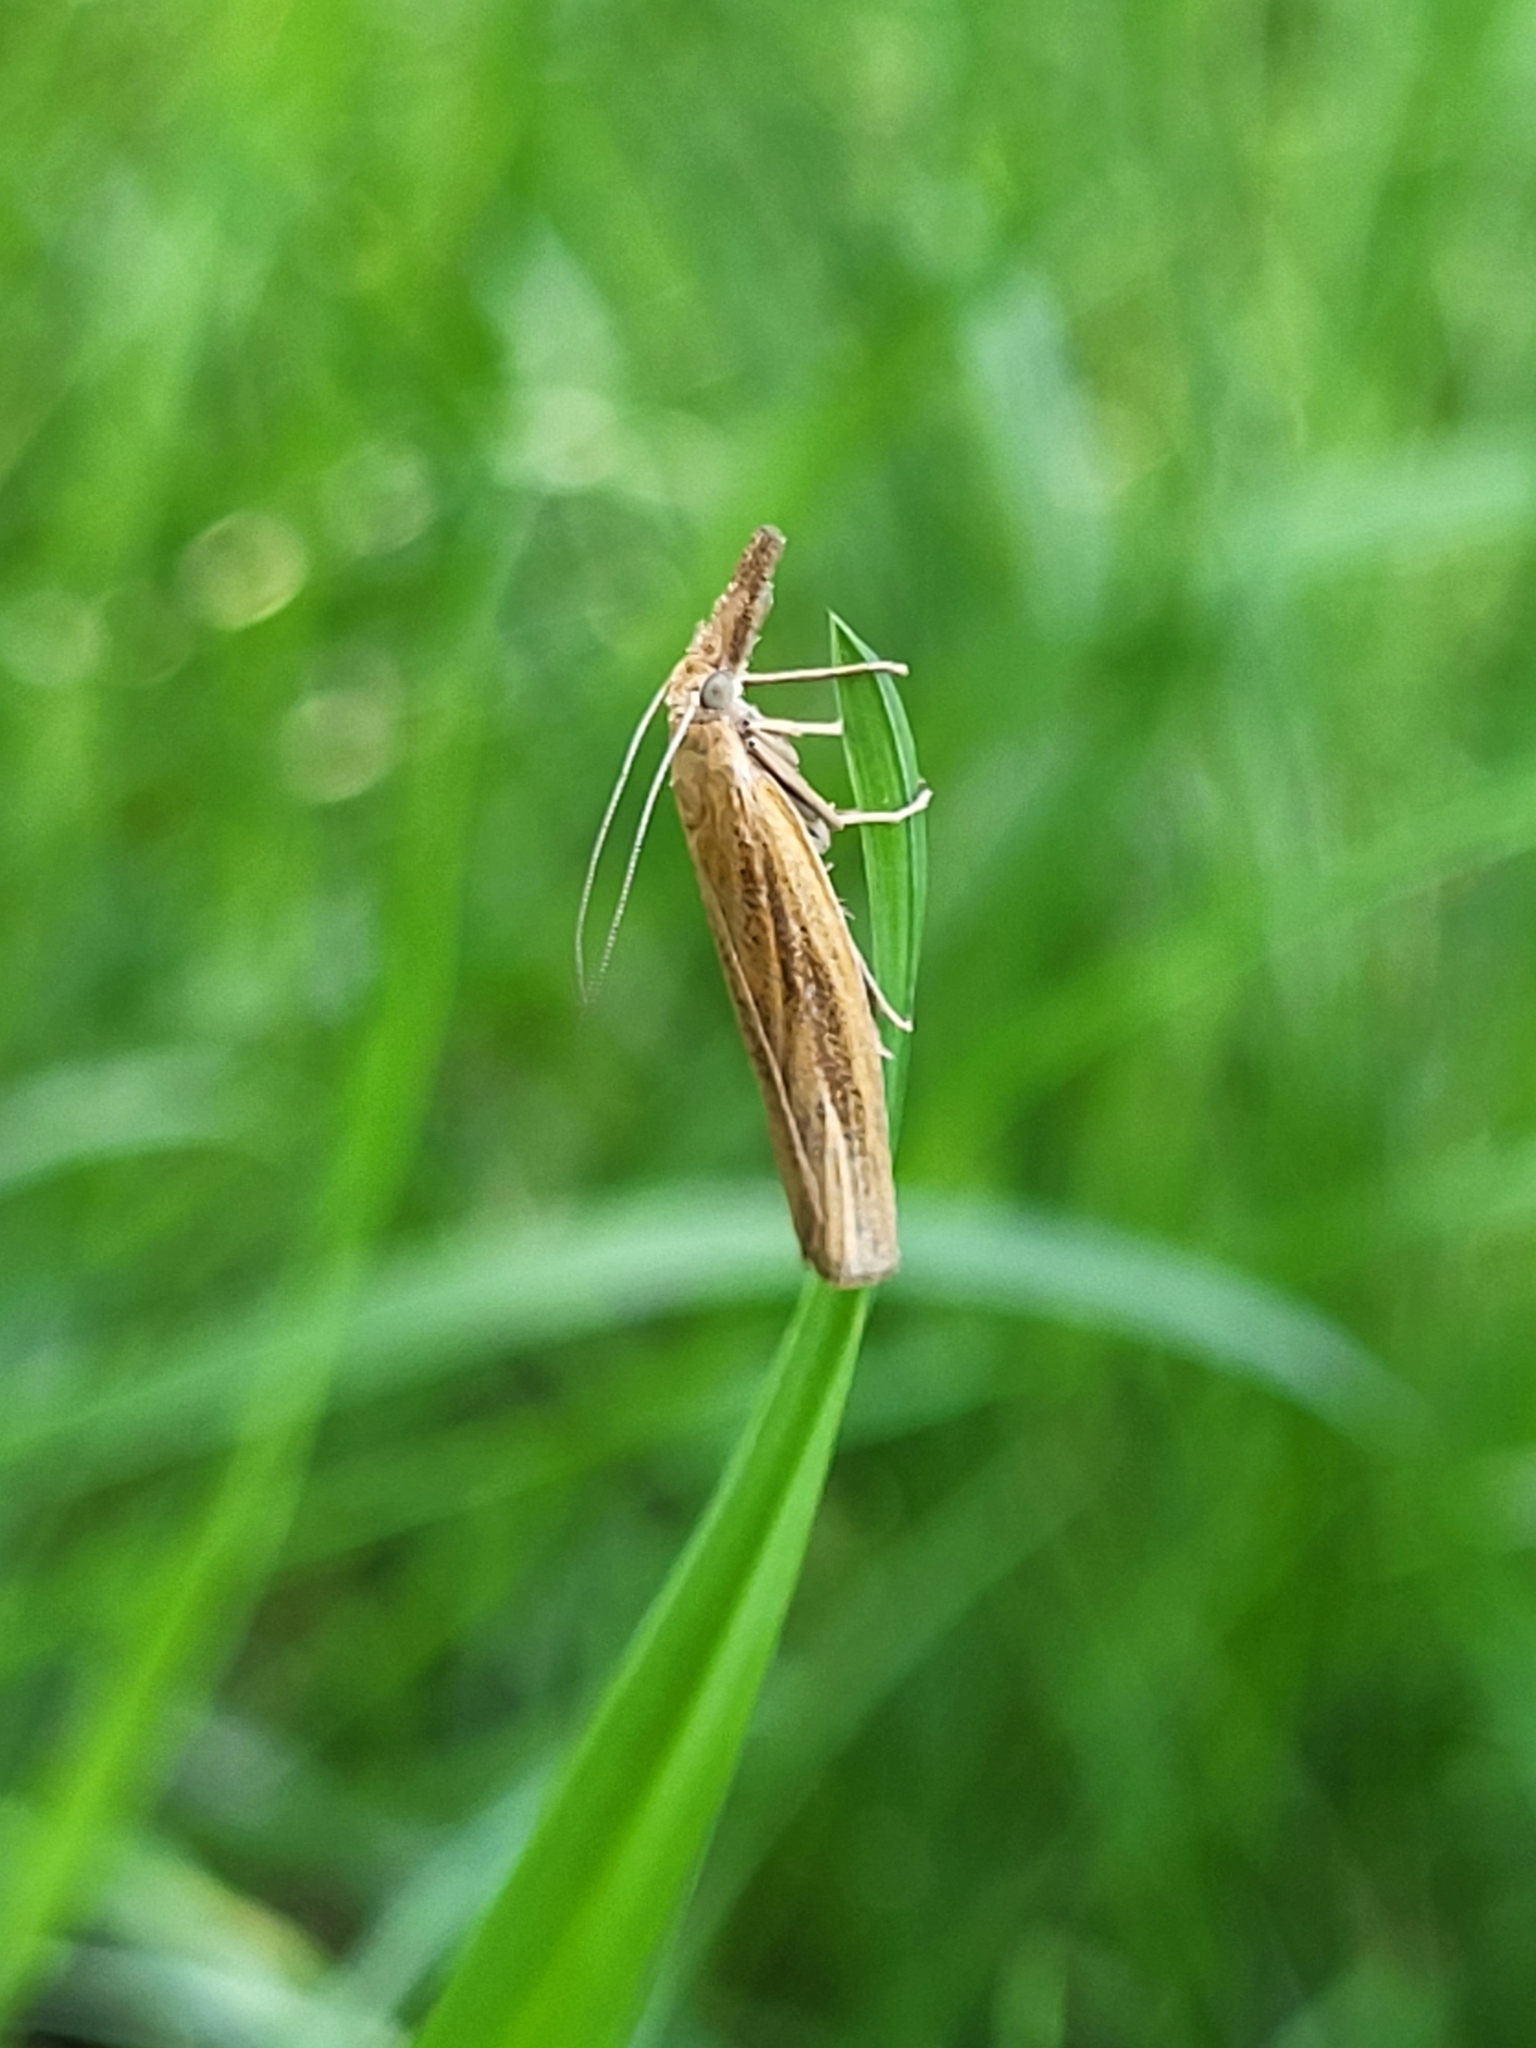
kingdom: Animalia
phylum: Arthropoda
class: Insecta
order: Lepidoptera
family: Crambidae
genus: Agriphila
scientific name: Agriphila tristellus
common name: Common grass-veneer
